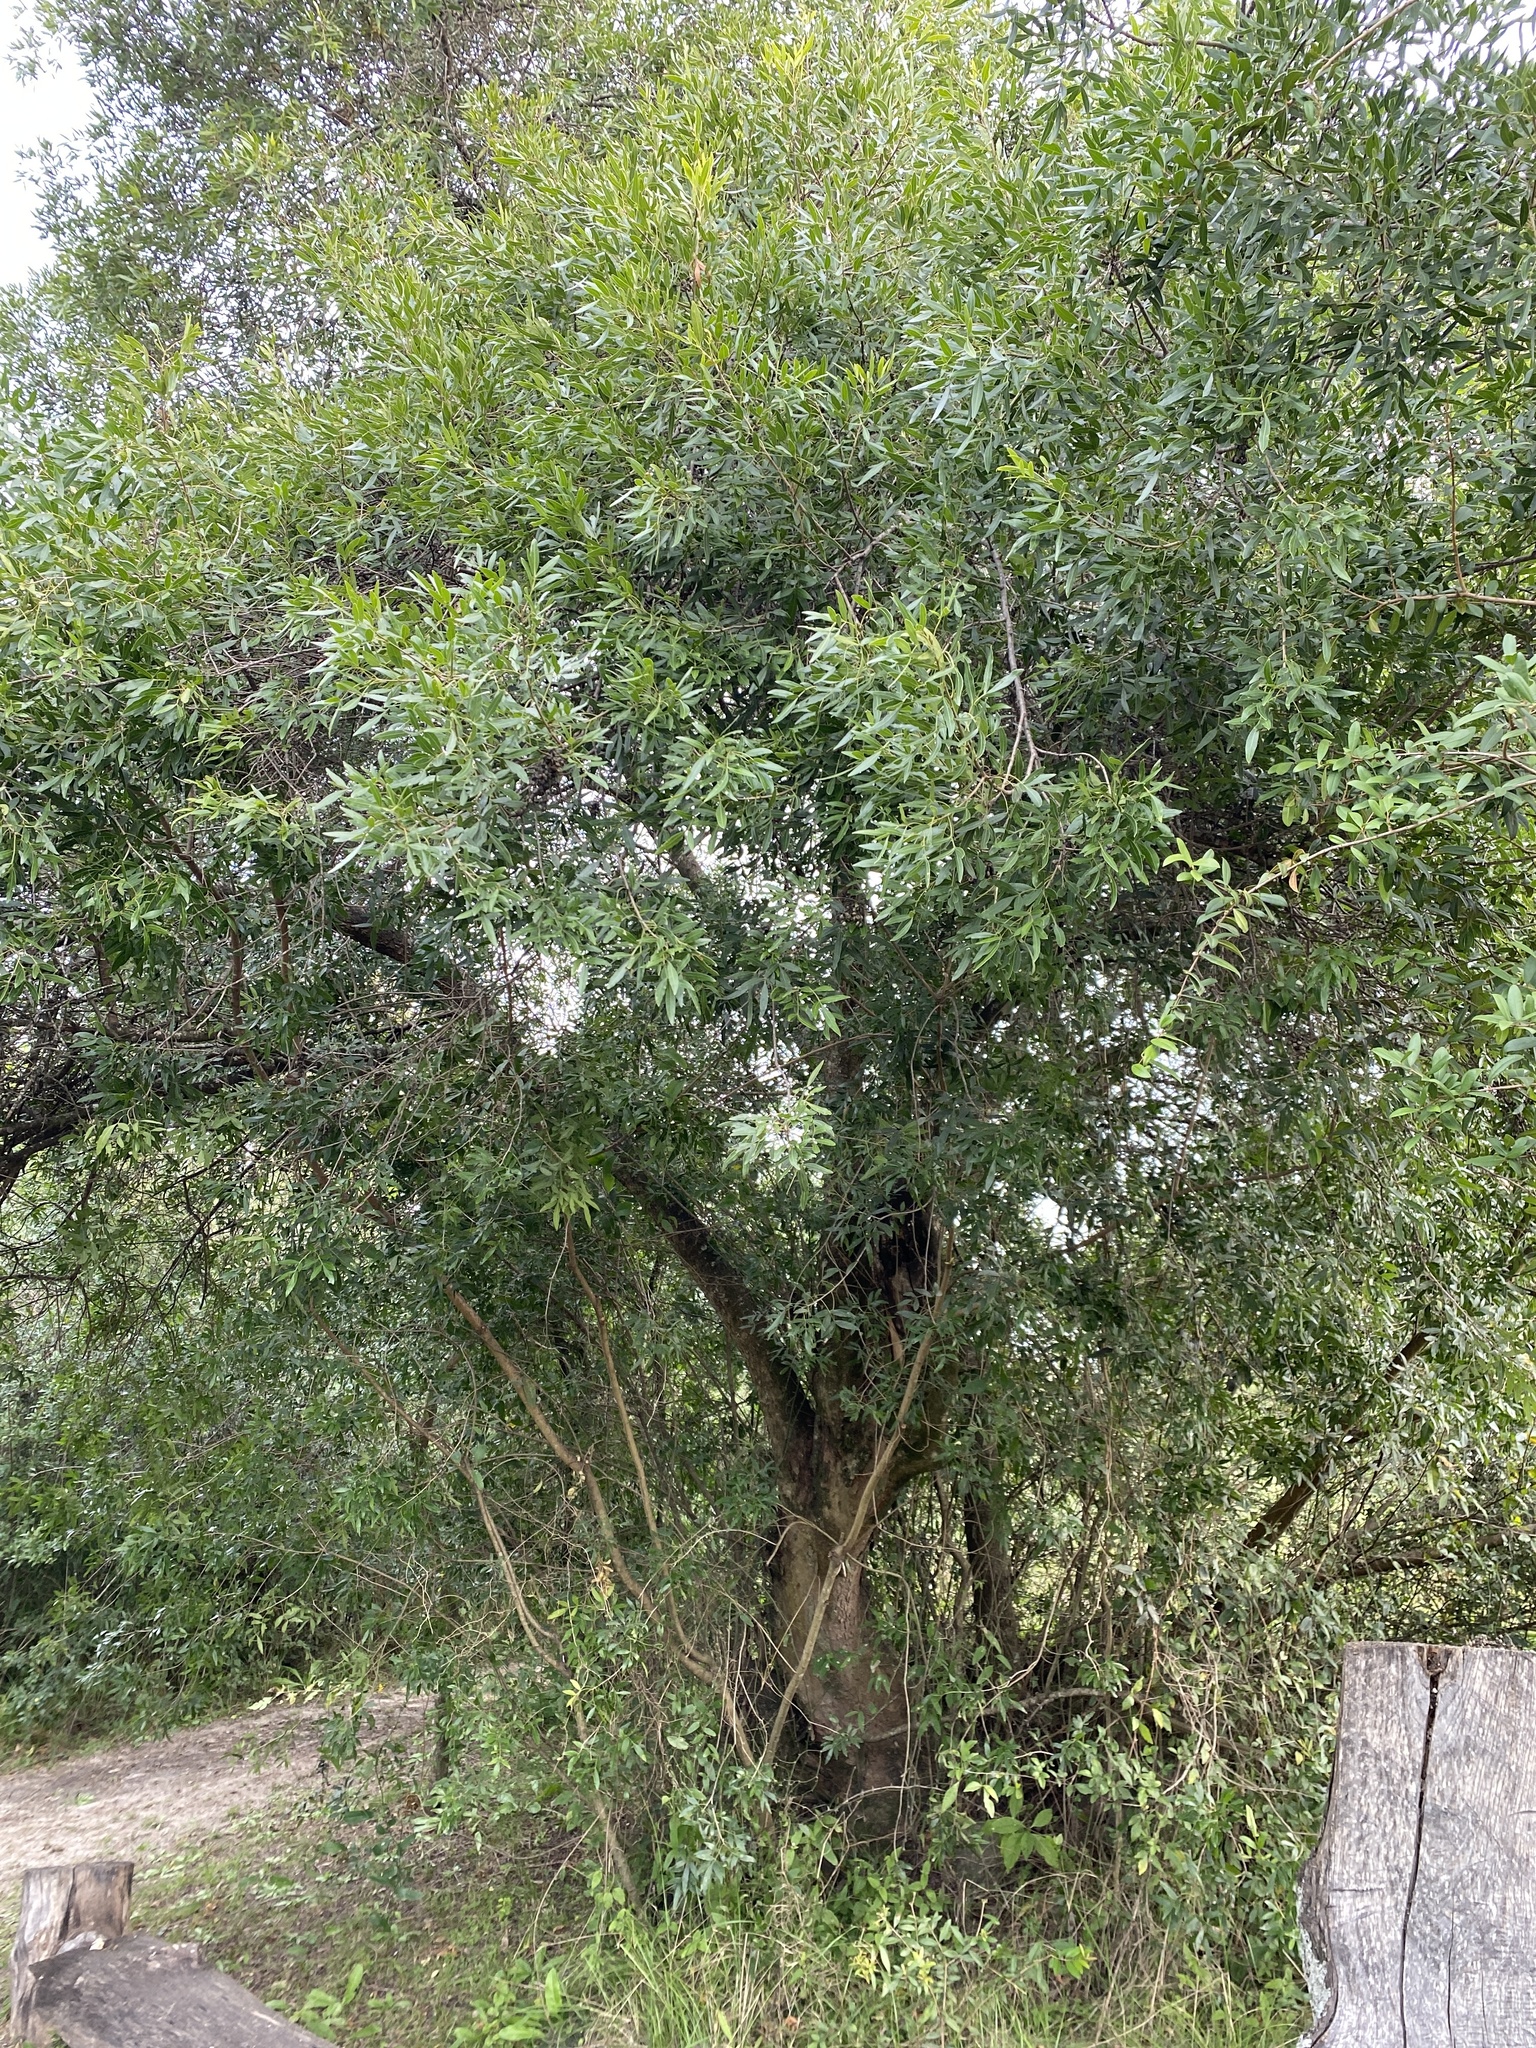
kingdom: Plantae
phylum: Tracheophyta
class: Magnoliopsida
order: Sapindales
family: Anacardiaceae
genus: Lithraea
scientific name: Lithraea molleoides
